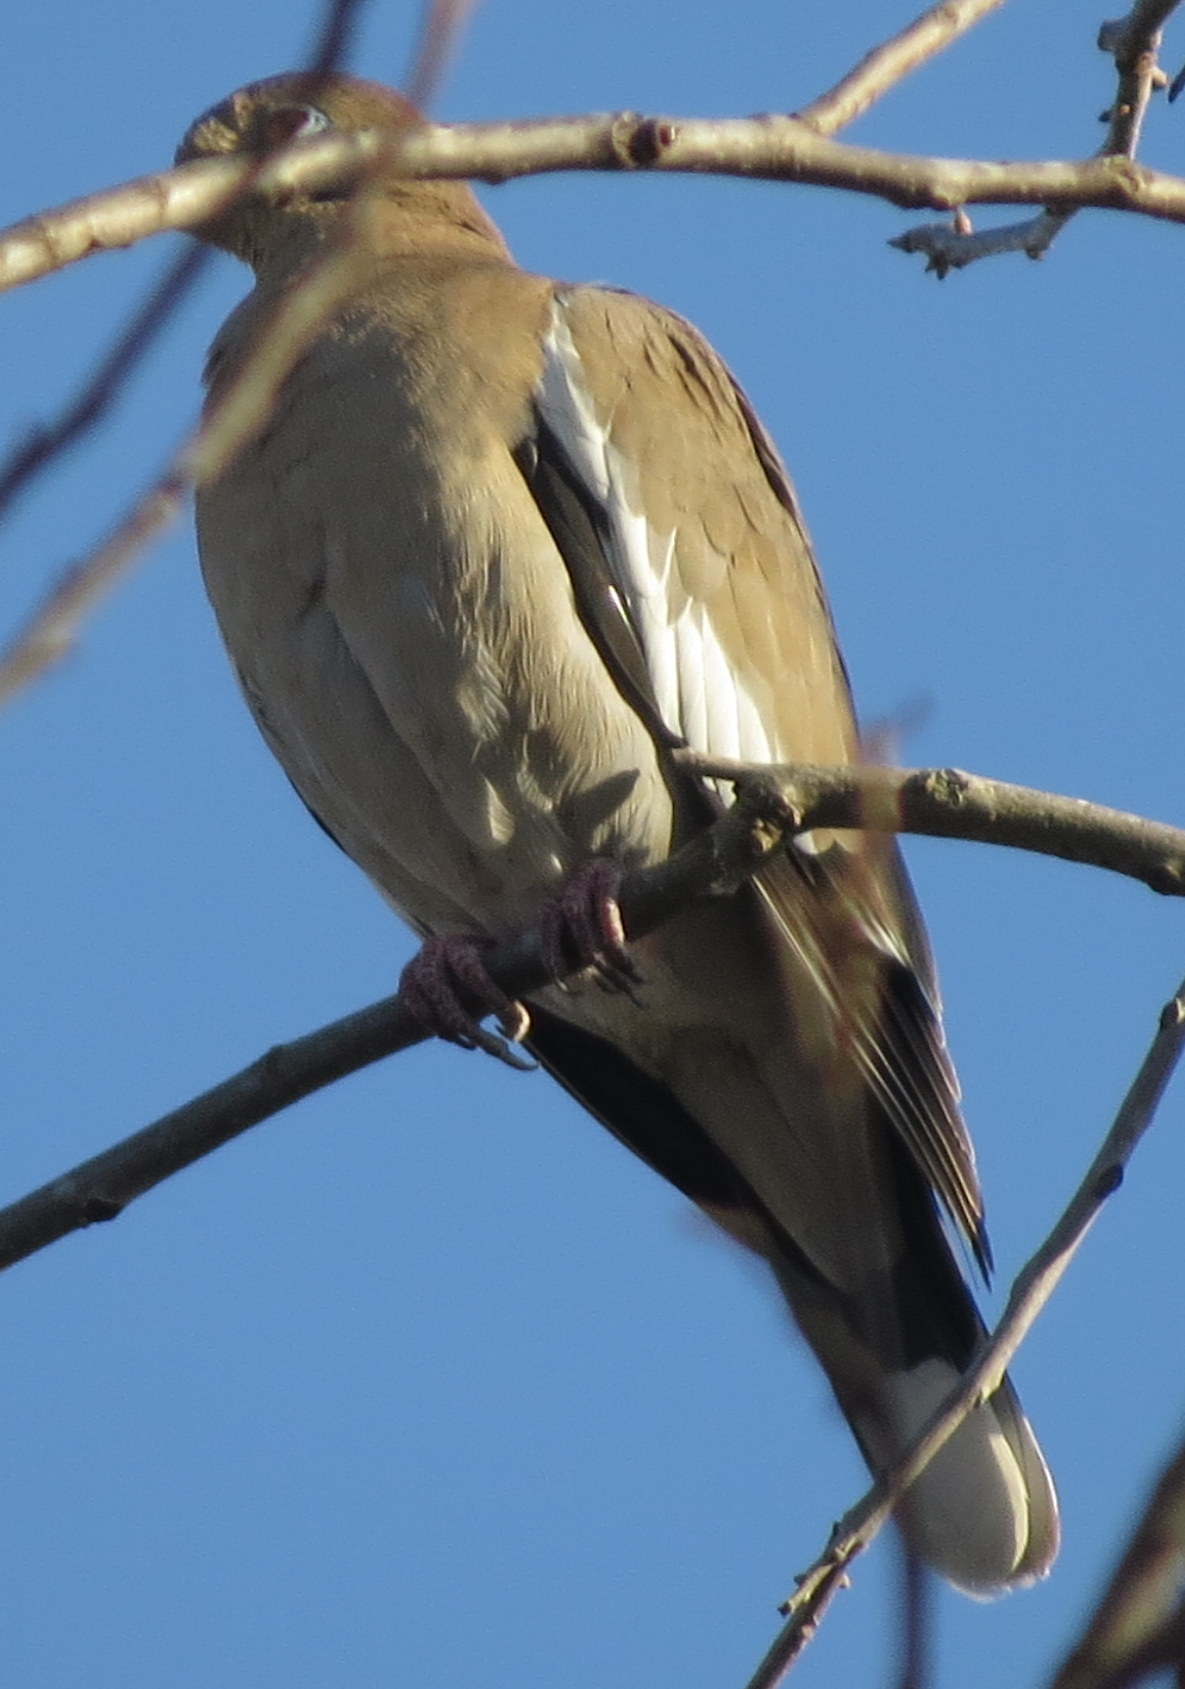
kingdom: Animalia
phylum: Chordata
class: Aves
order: Columbiformes
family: Columbidae
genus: Zenaida
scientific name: Zenaida asiatica
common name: White-winged dove
